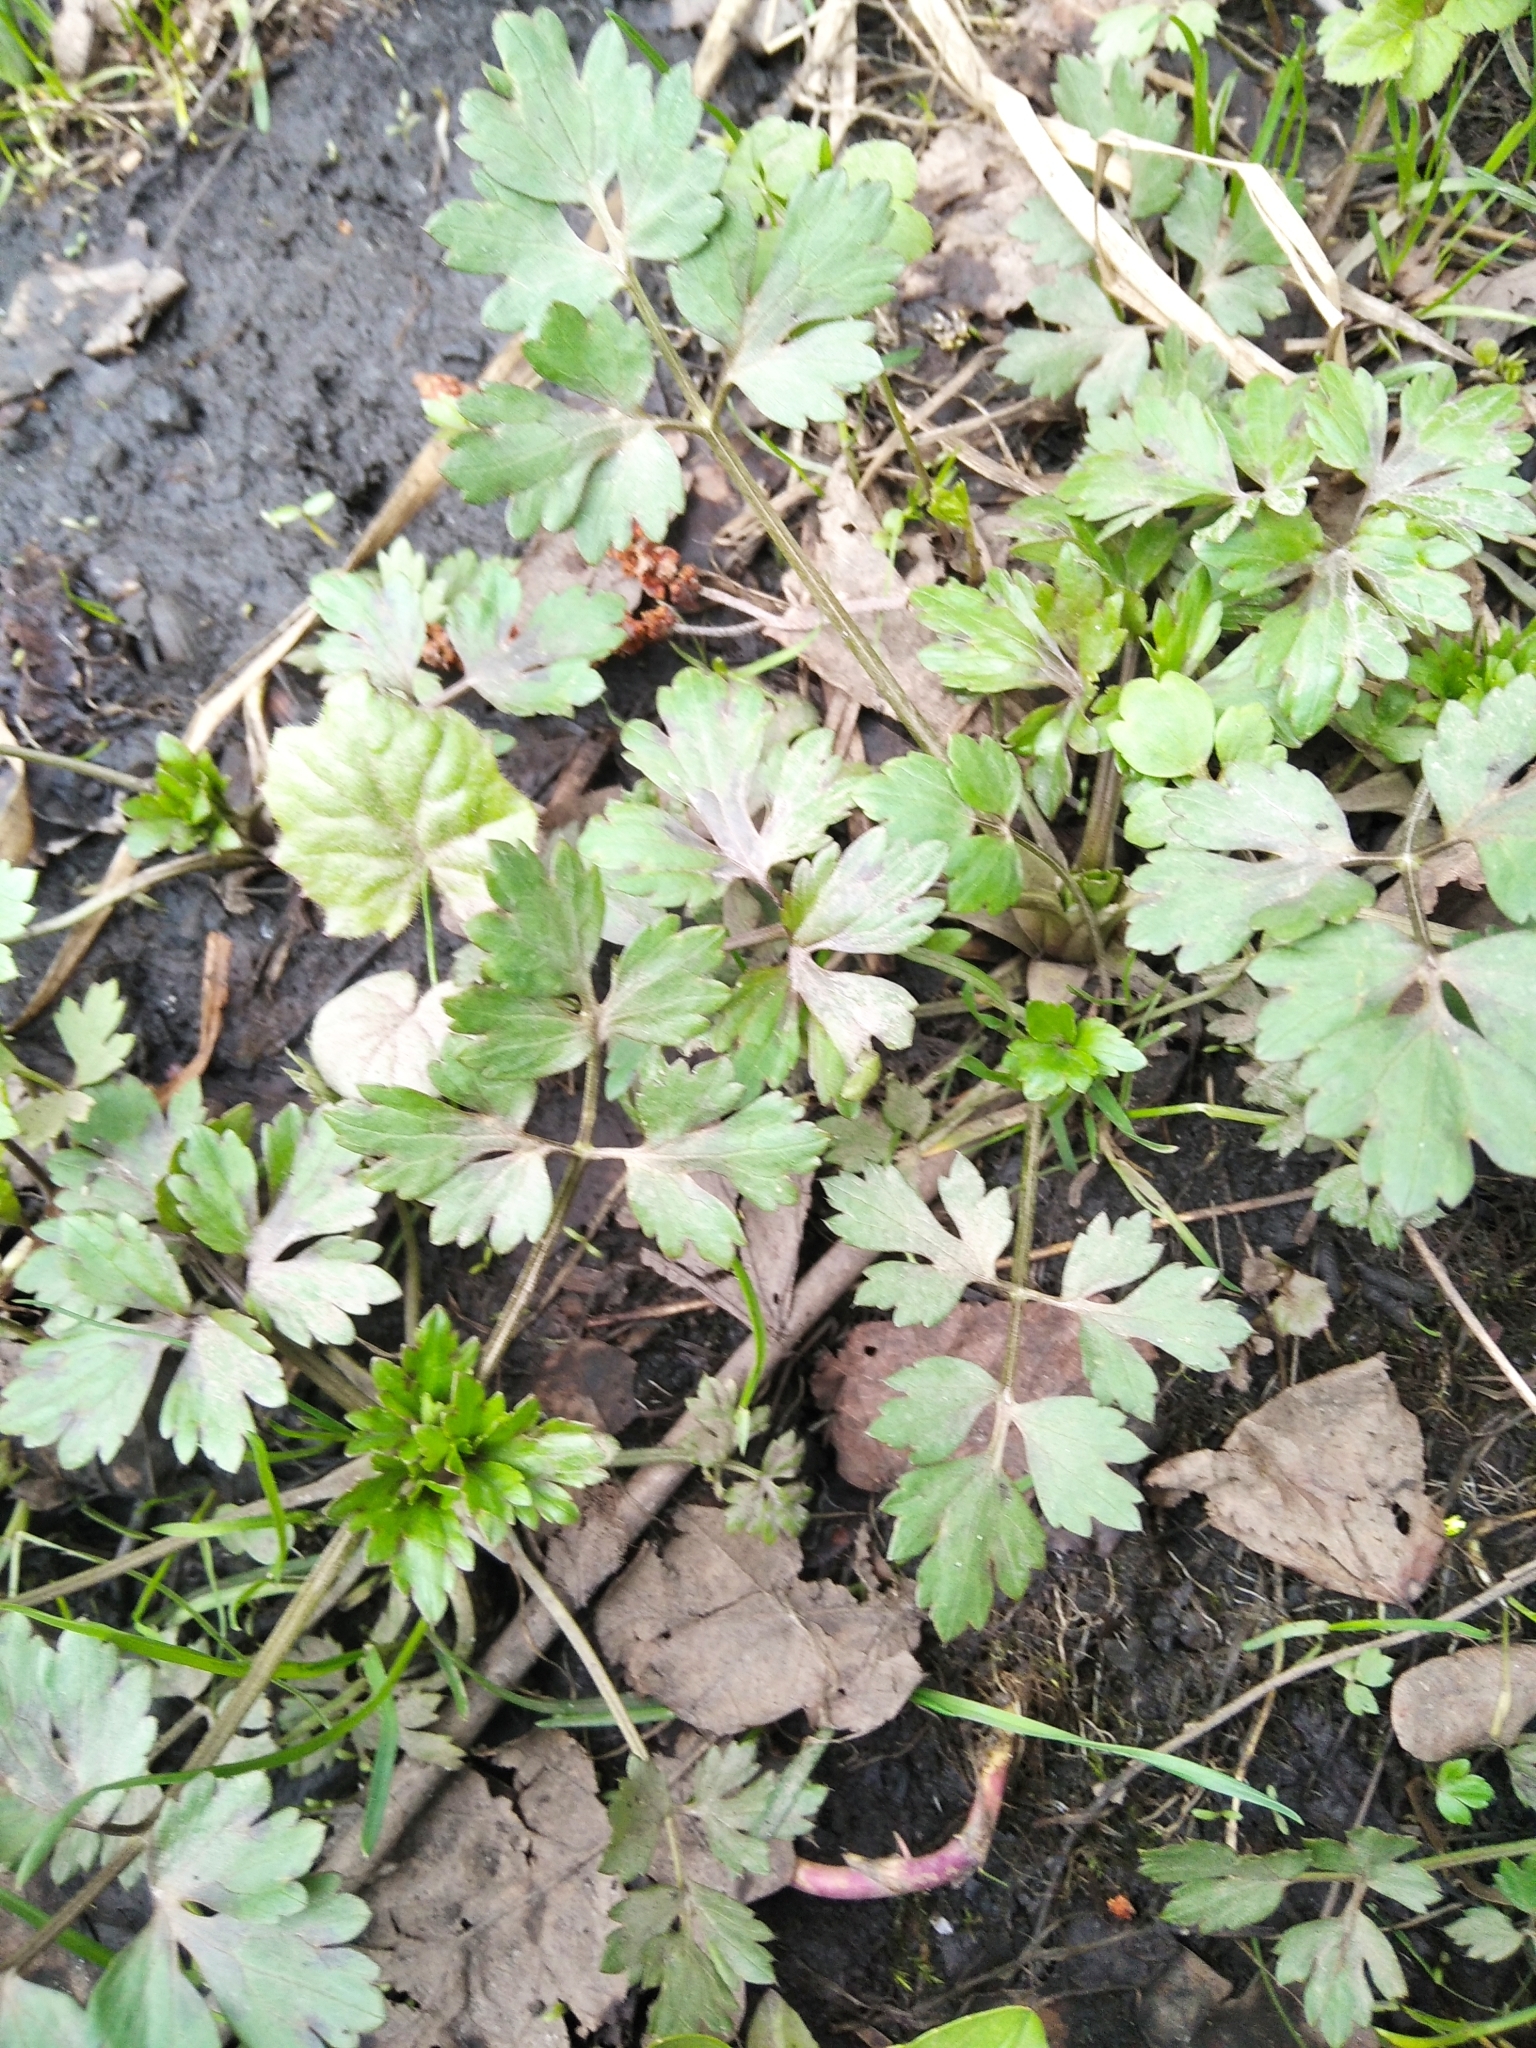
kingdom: Plantae
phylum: Tracheophyta
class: Magnoliopsida
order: Ranunculales
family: Ranunculaceae
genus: Ranunculus
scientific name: Ranunculus repens
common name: Creeping buttercup
